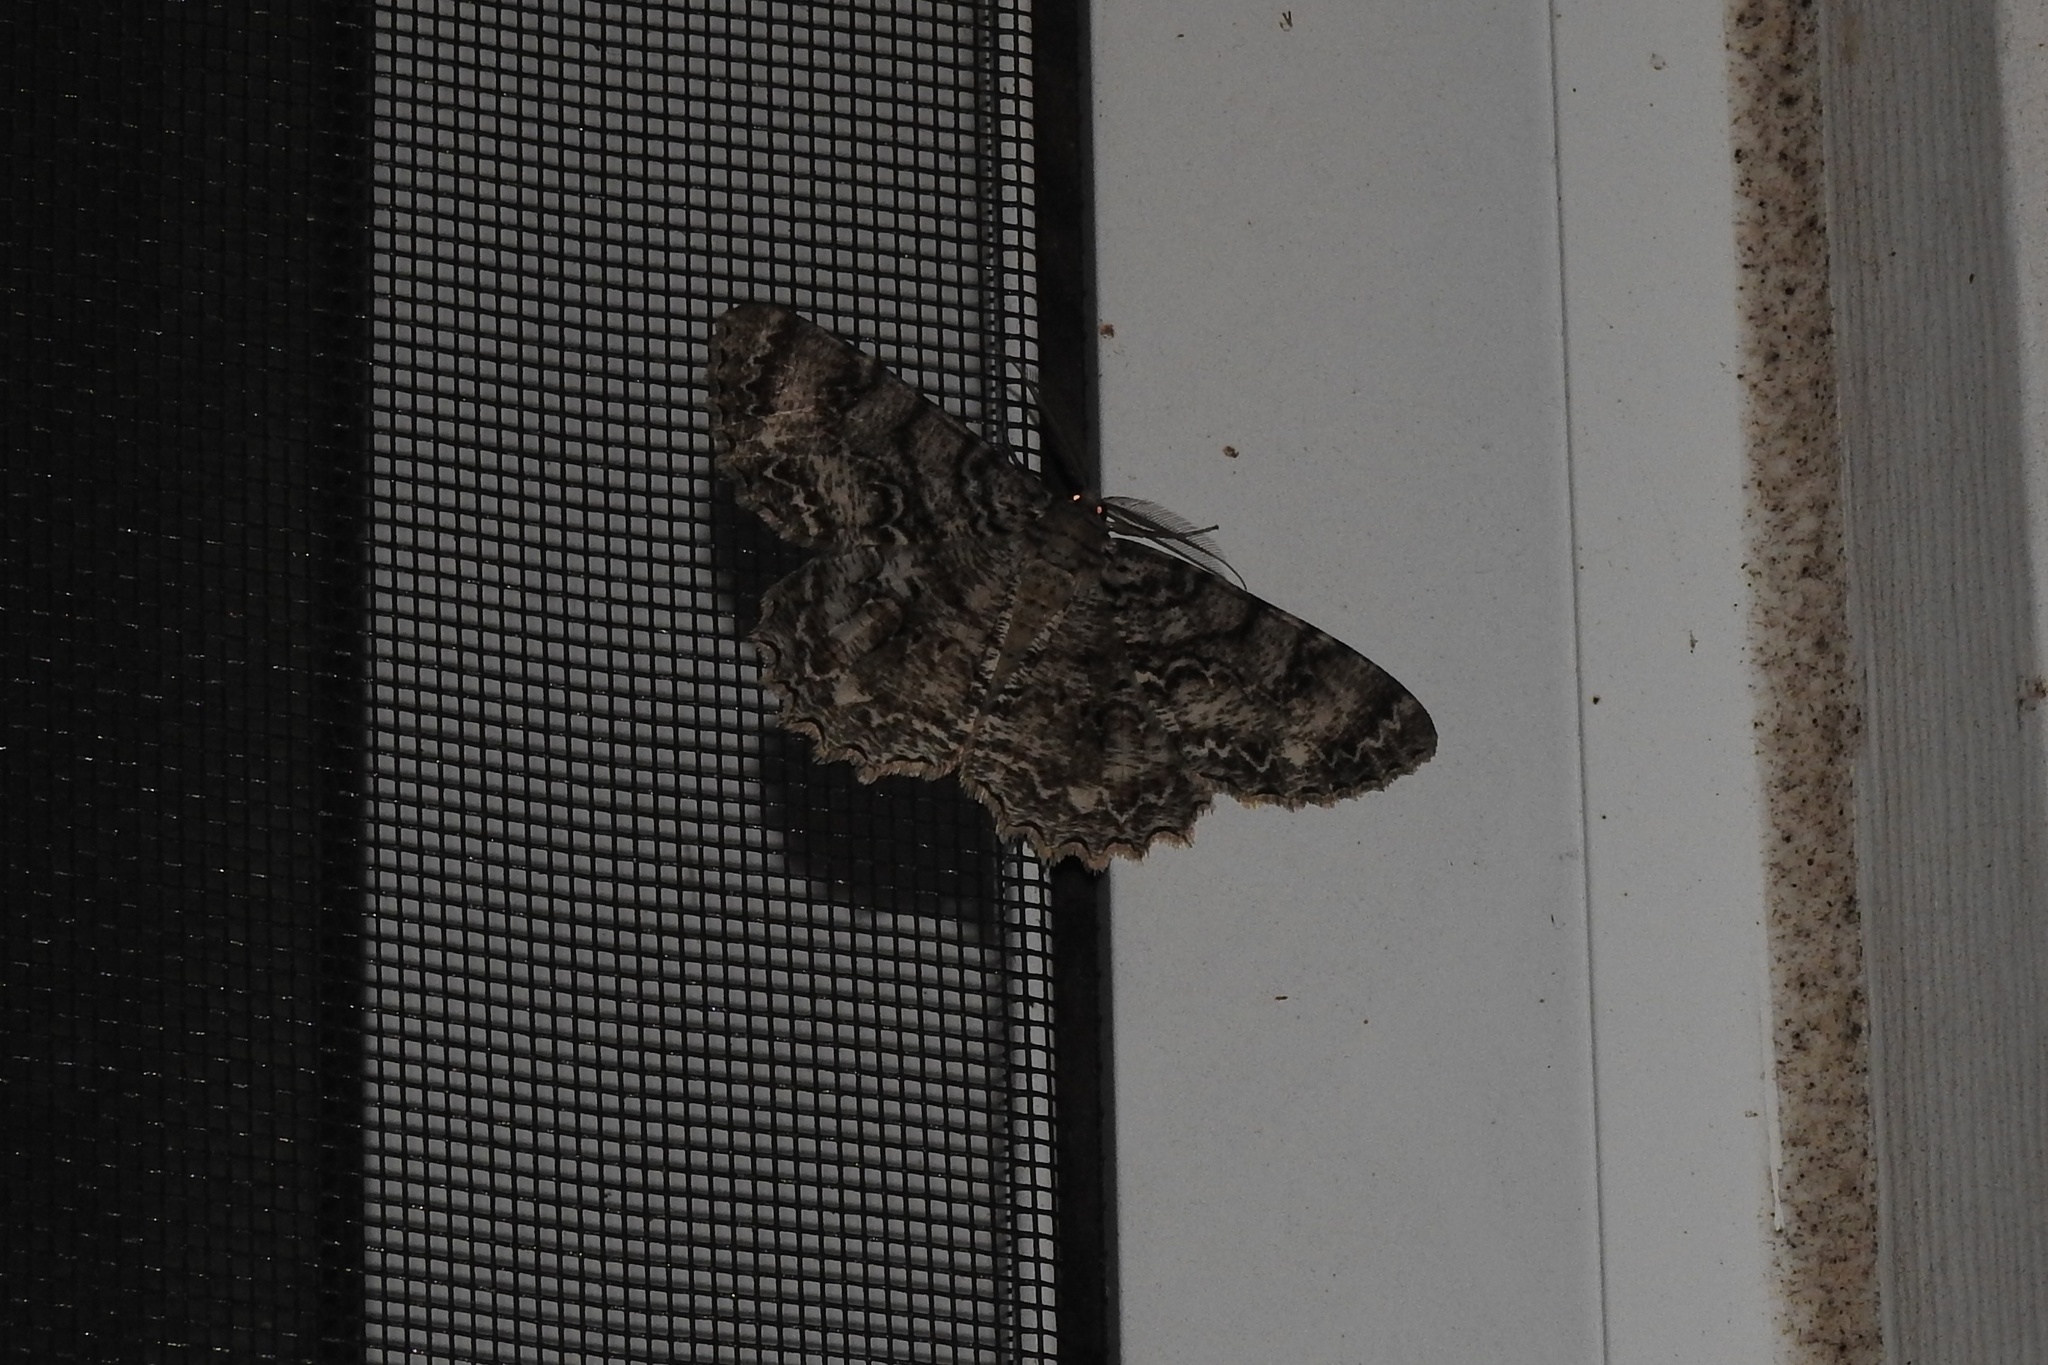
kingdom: Animalia
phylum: Arthropoda
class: Insecta
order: Lepidoptera
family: Geometridae
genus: Epimecis
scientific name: Epimecis hortaria
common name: Tulip-tree beauty
